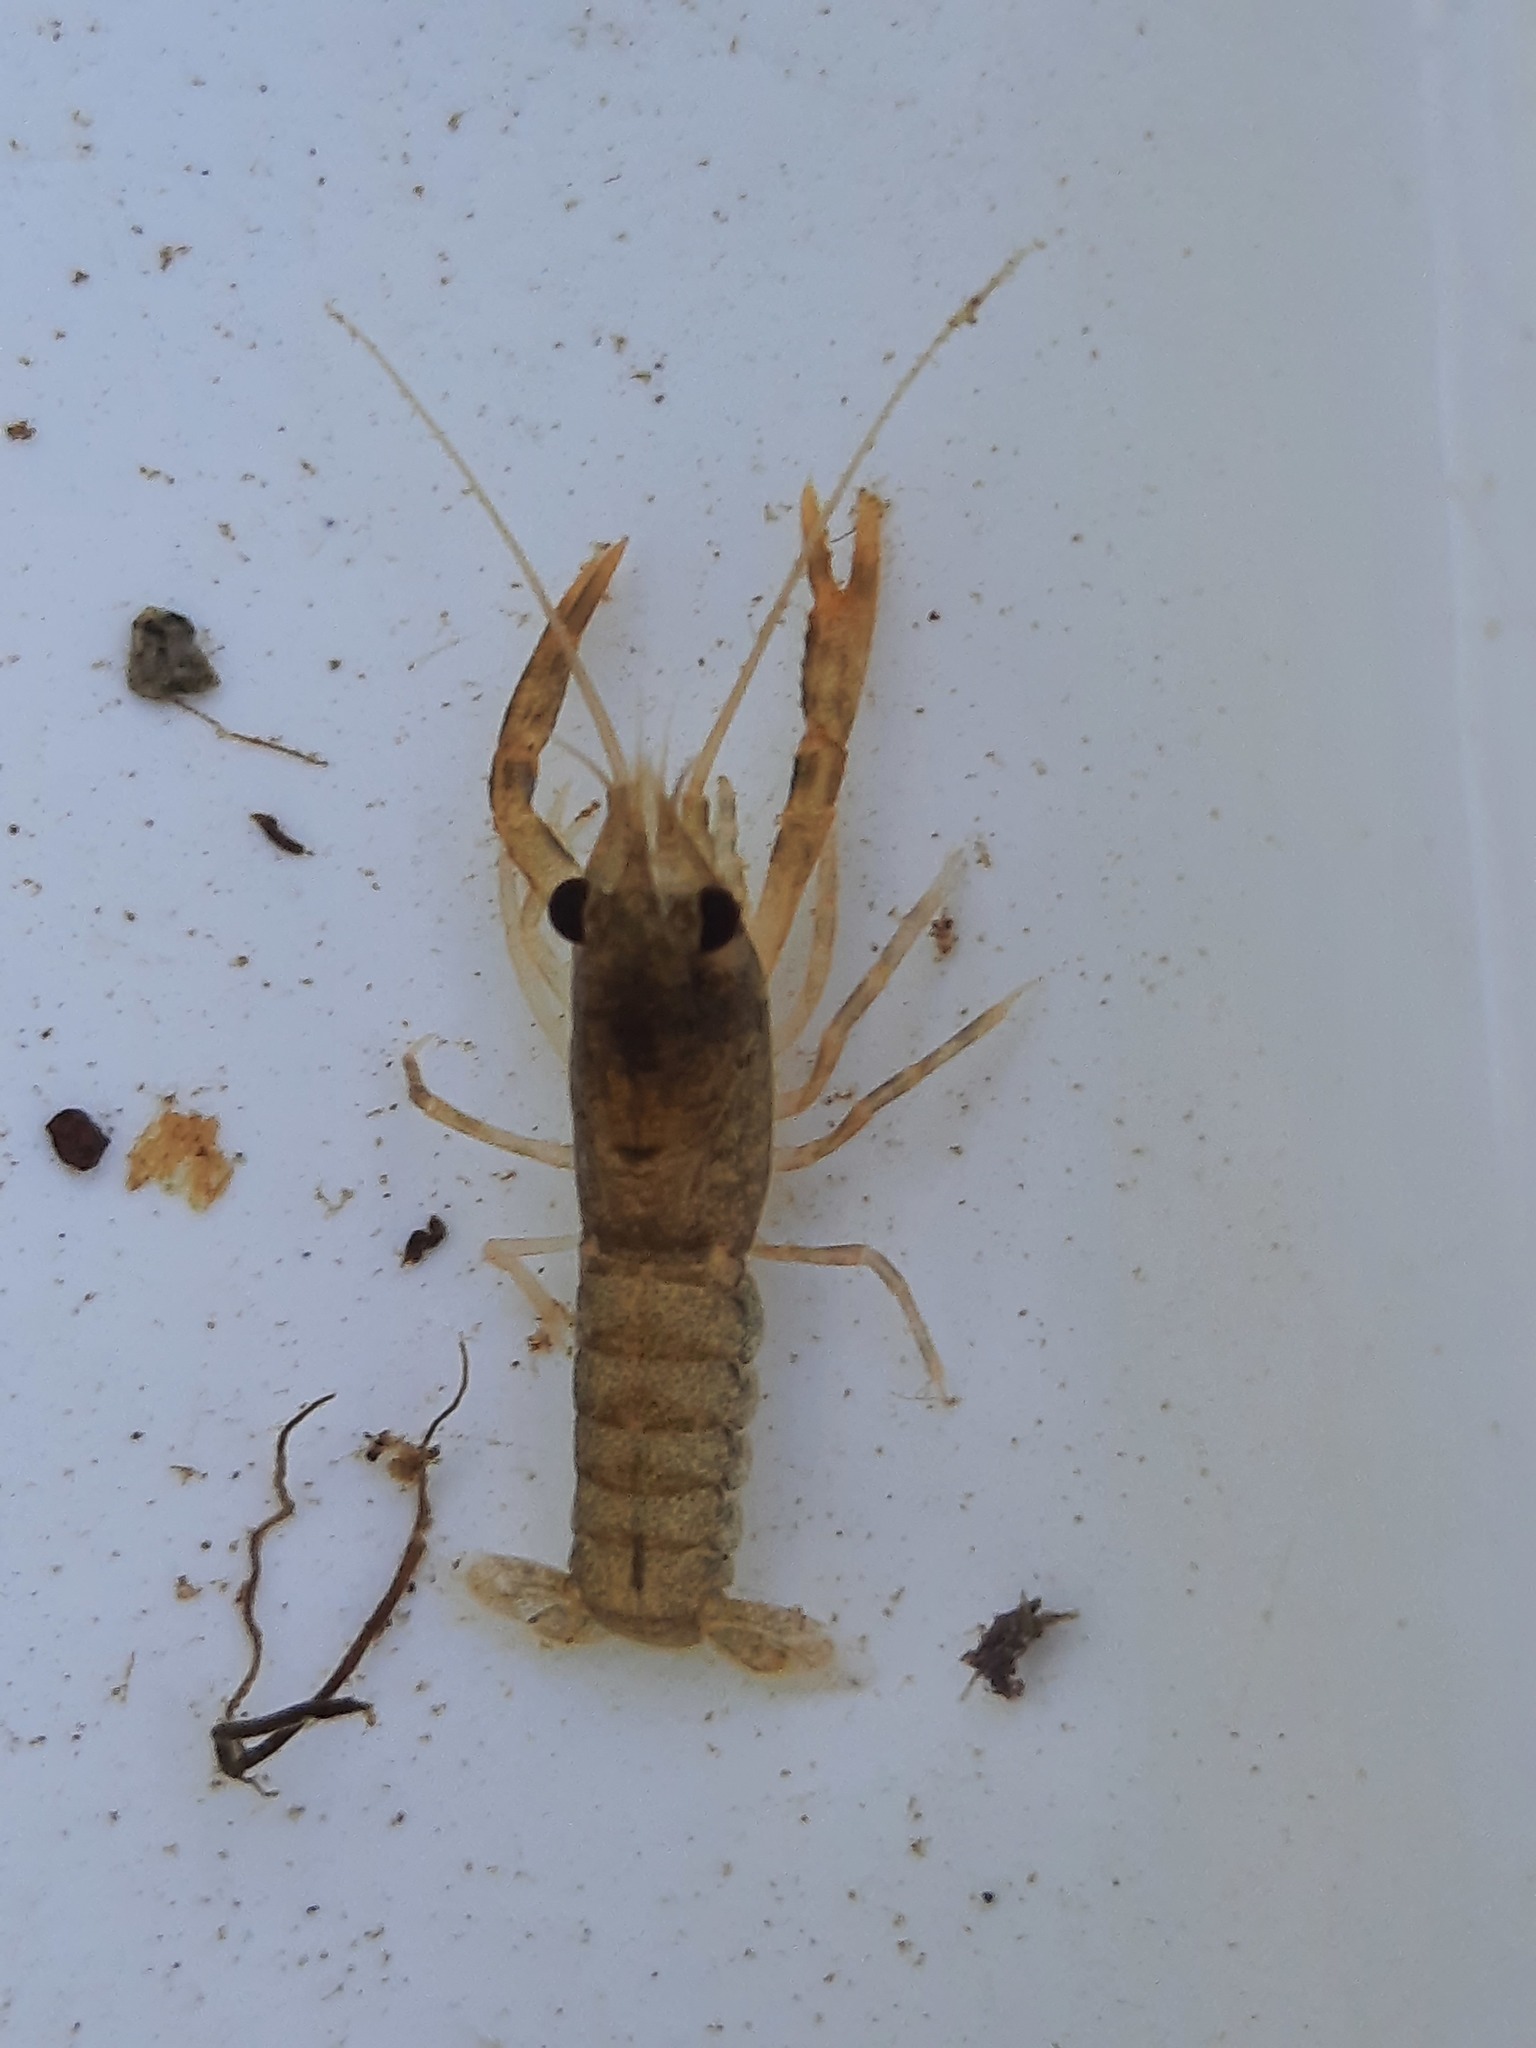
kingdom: Animalia
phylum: Arthropoda
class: Malacostraca
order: Decapoda
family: Parastacidae
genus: Paranephrops
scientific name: Paranephrops planifrons
